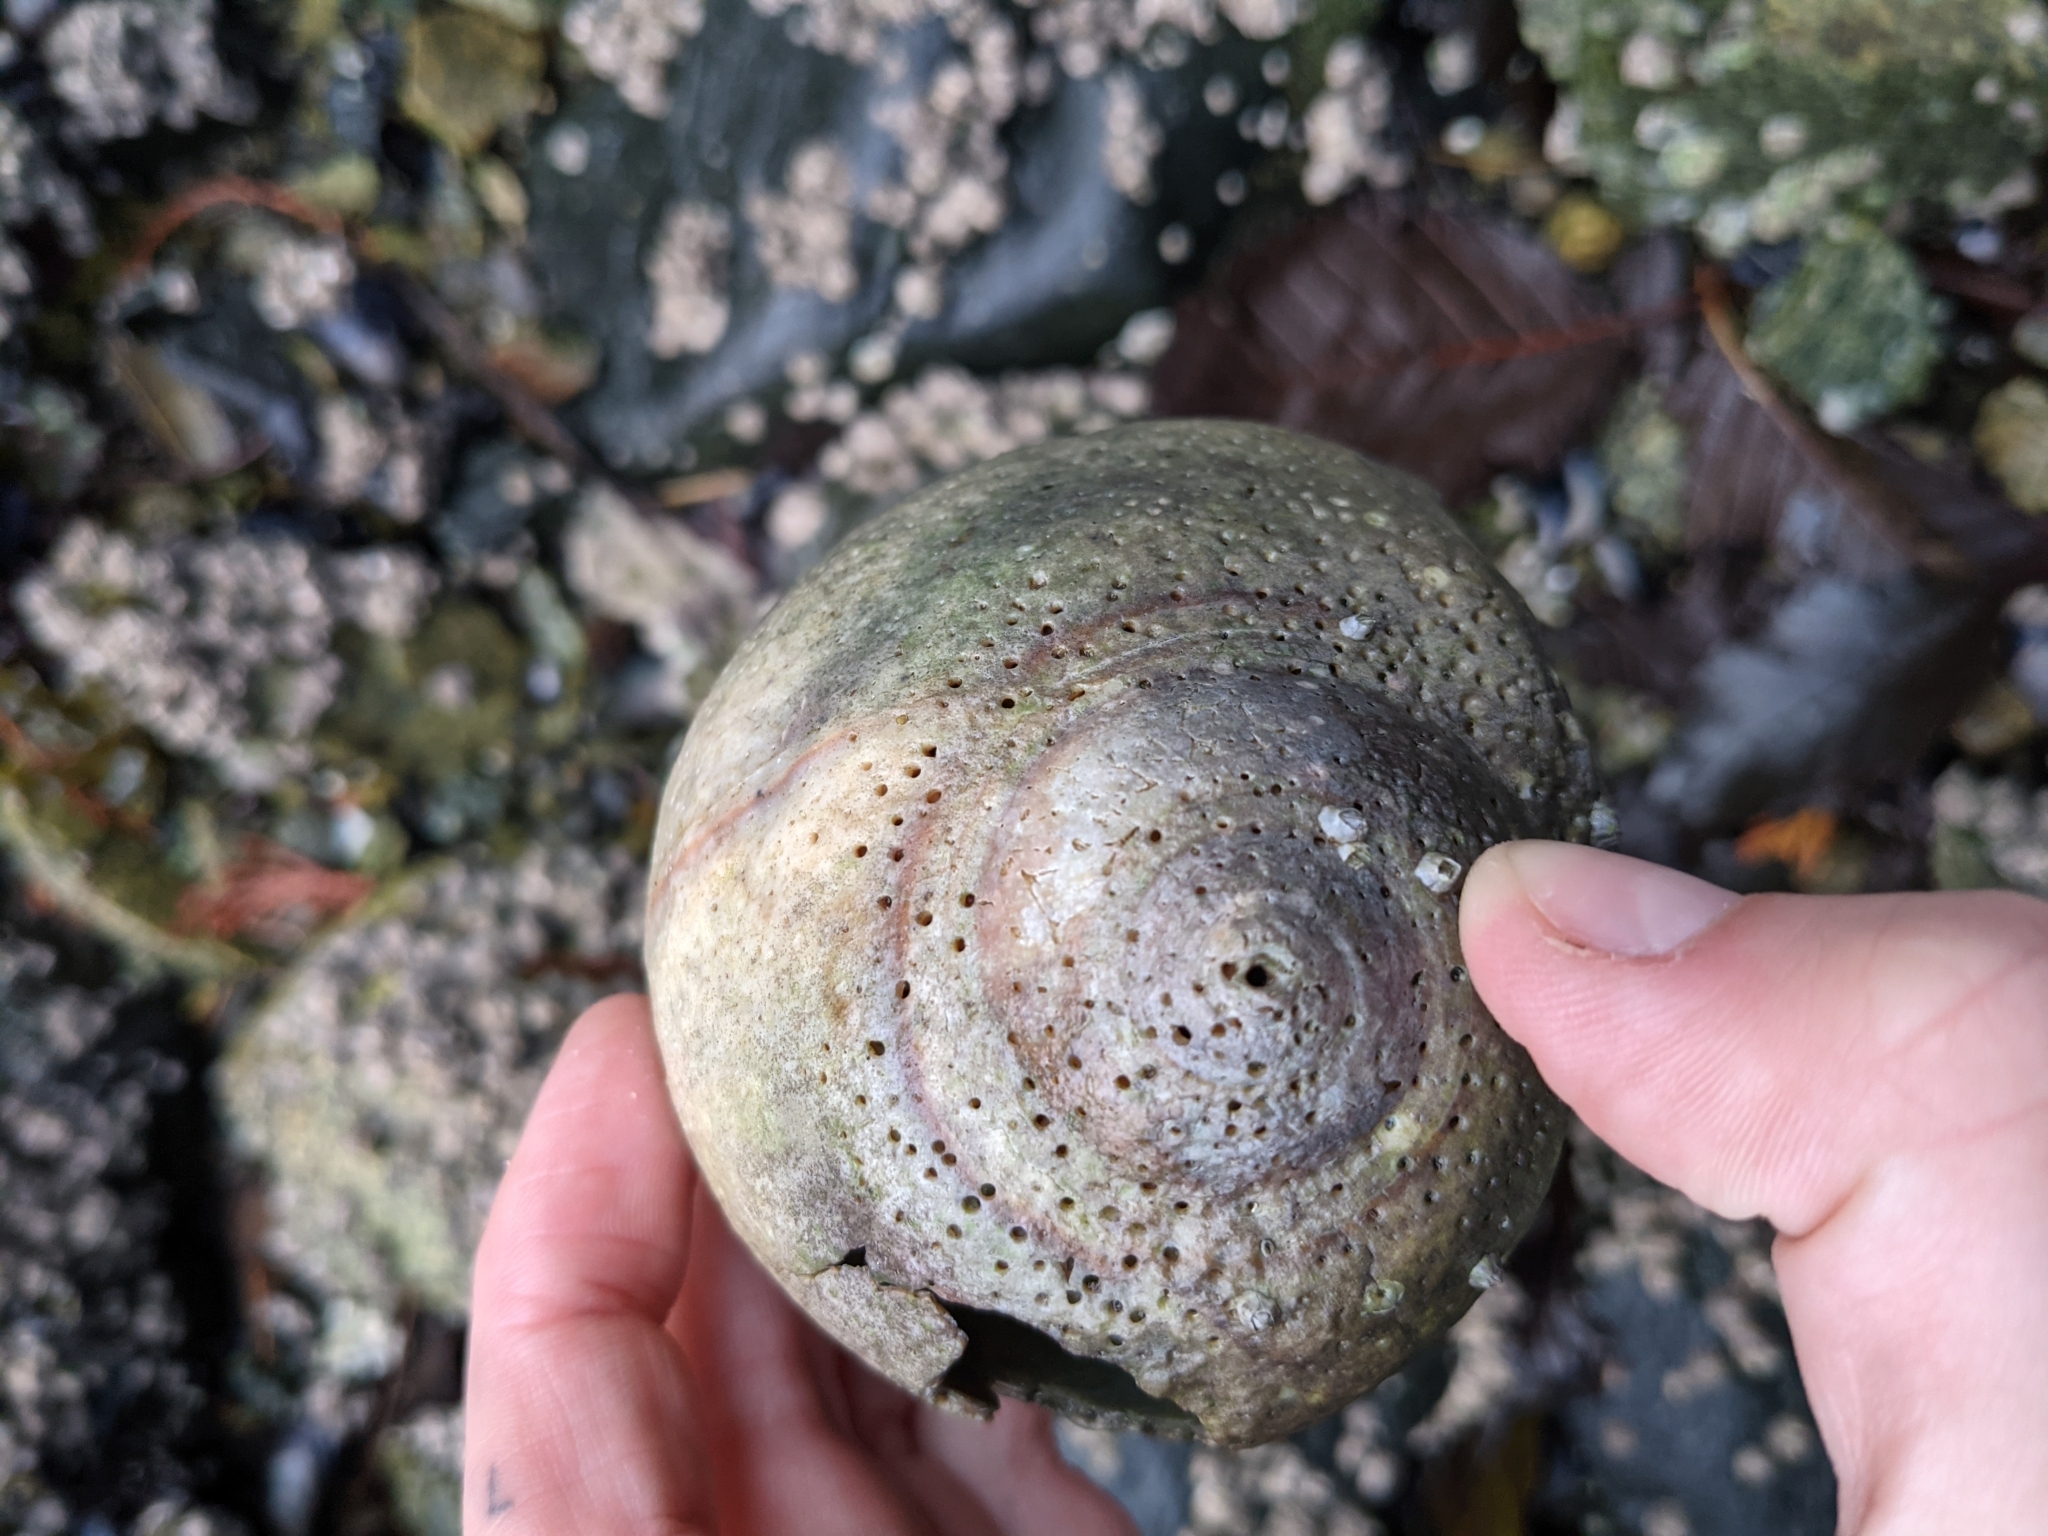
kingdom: Animalia
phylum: Mollusca
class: Gastropoda
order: Littorinimorpha
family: Naticidae
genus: Neverita
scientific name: Neverita lewisii
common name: Lewis' moonsnail
